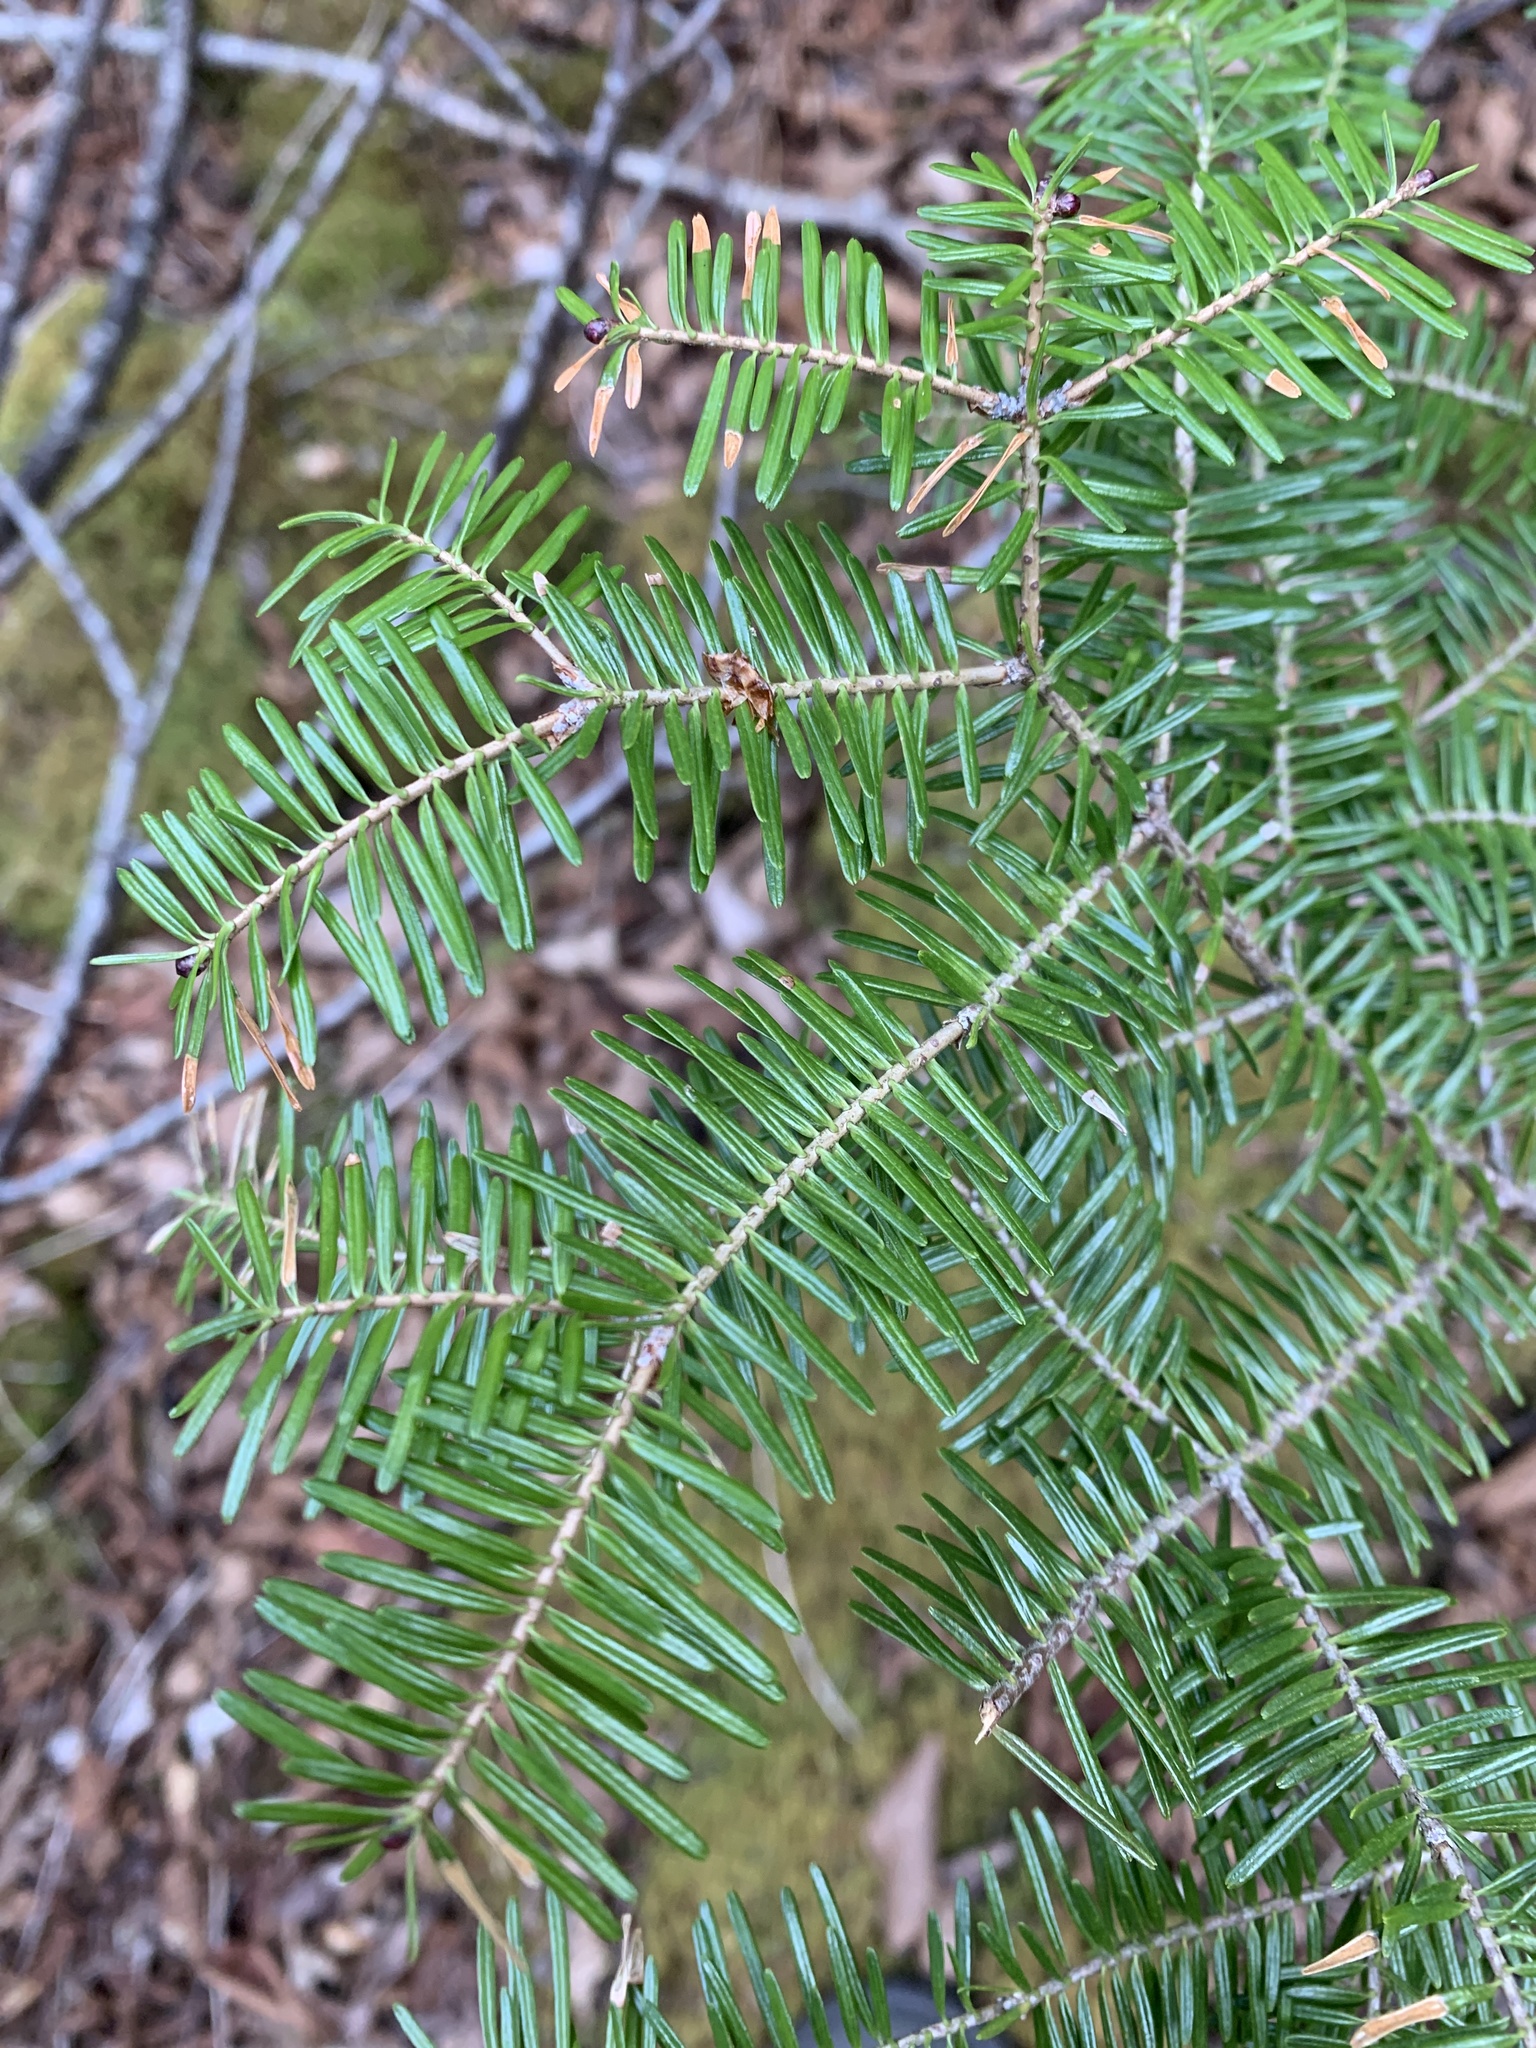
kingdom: Plantae
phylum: Tracheophyta
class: Pinopsida
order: Pinales
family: Pinaceae
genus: Abies
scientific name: Abies balsamea
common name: Balsam fir
